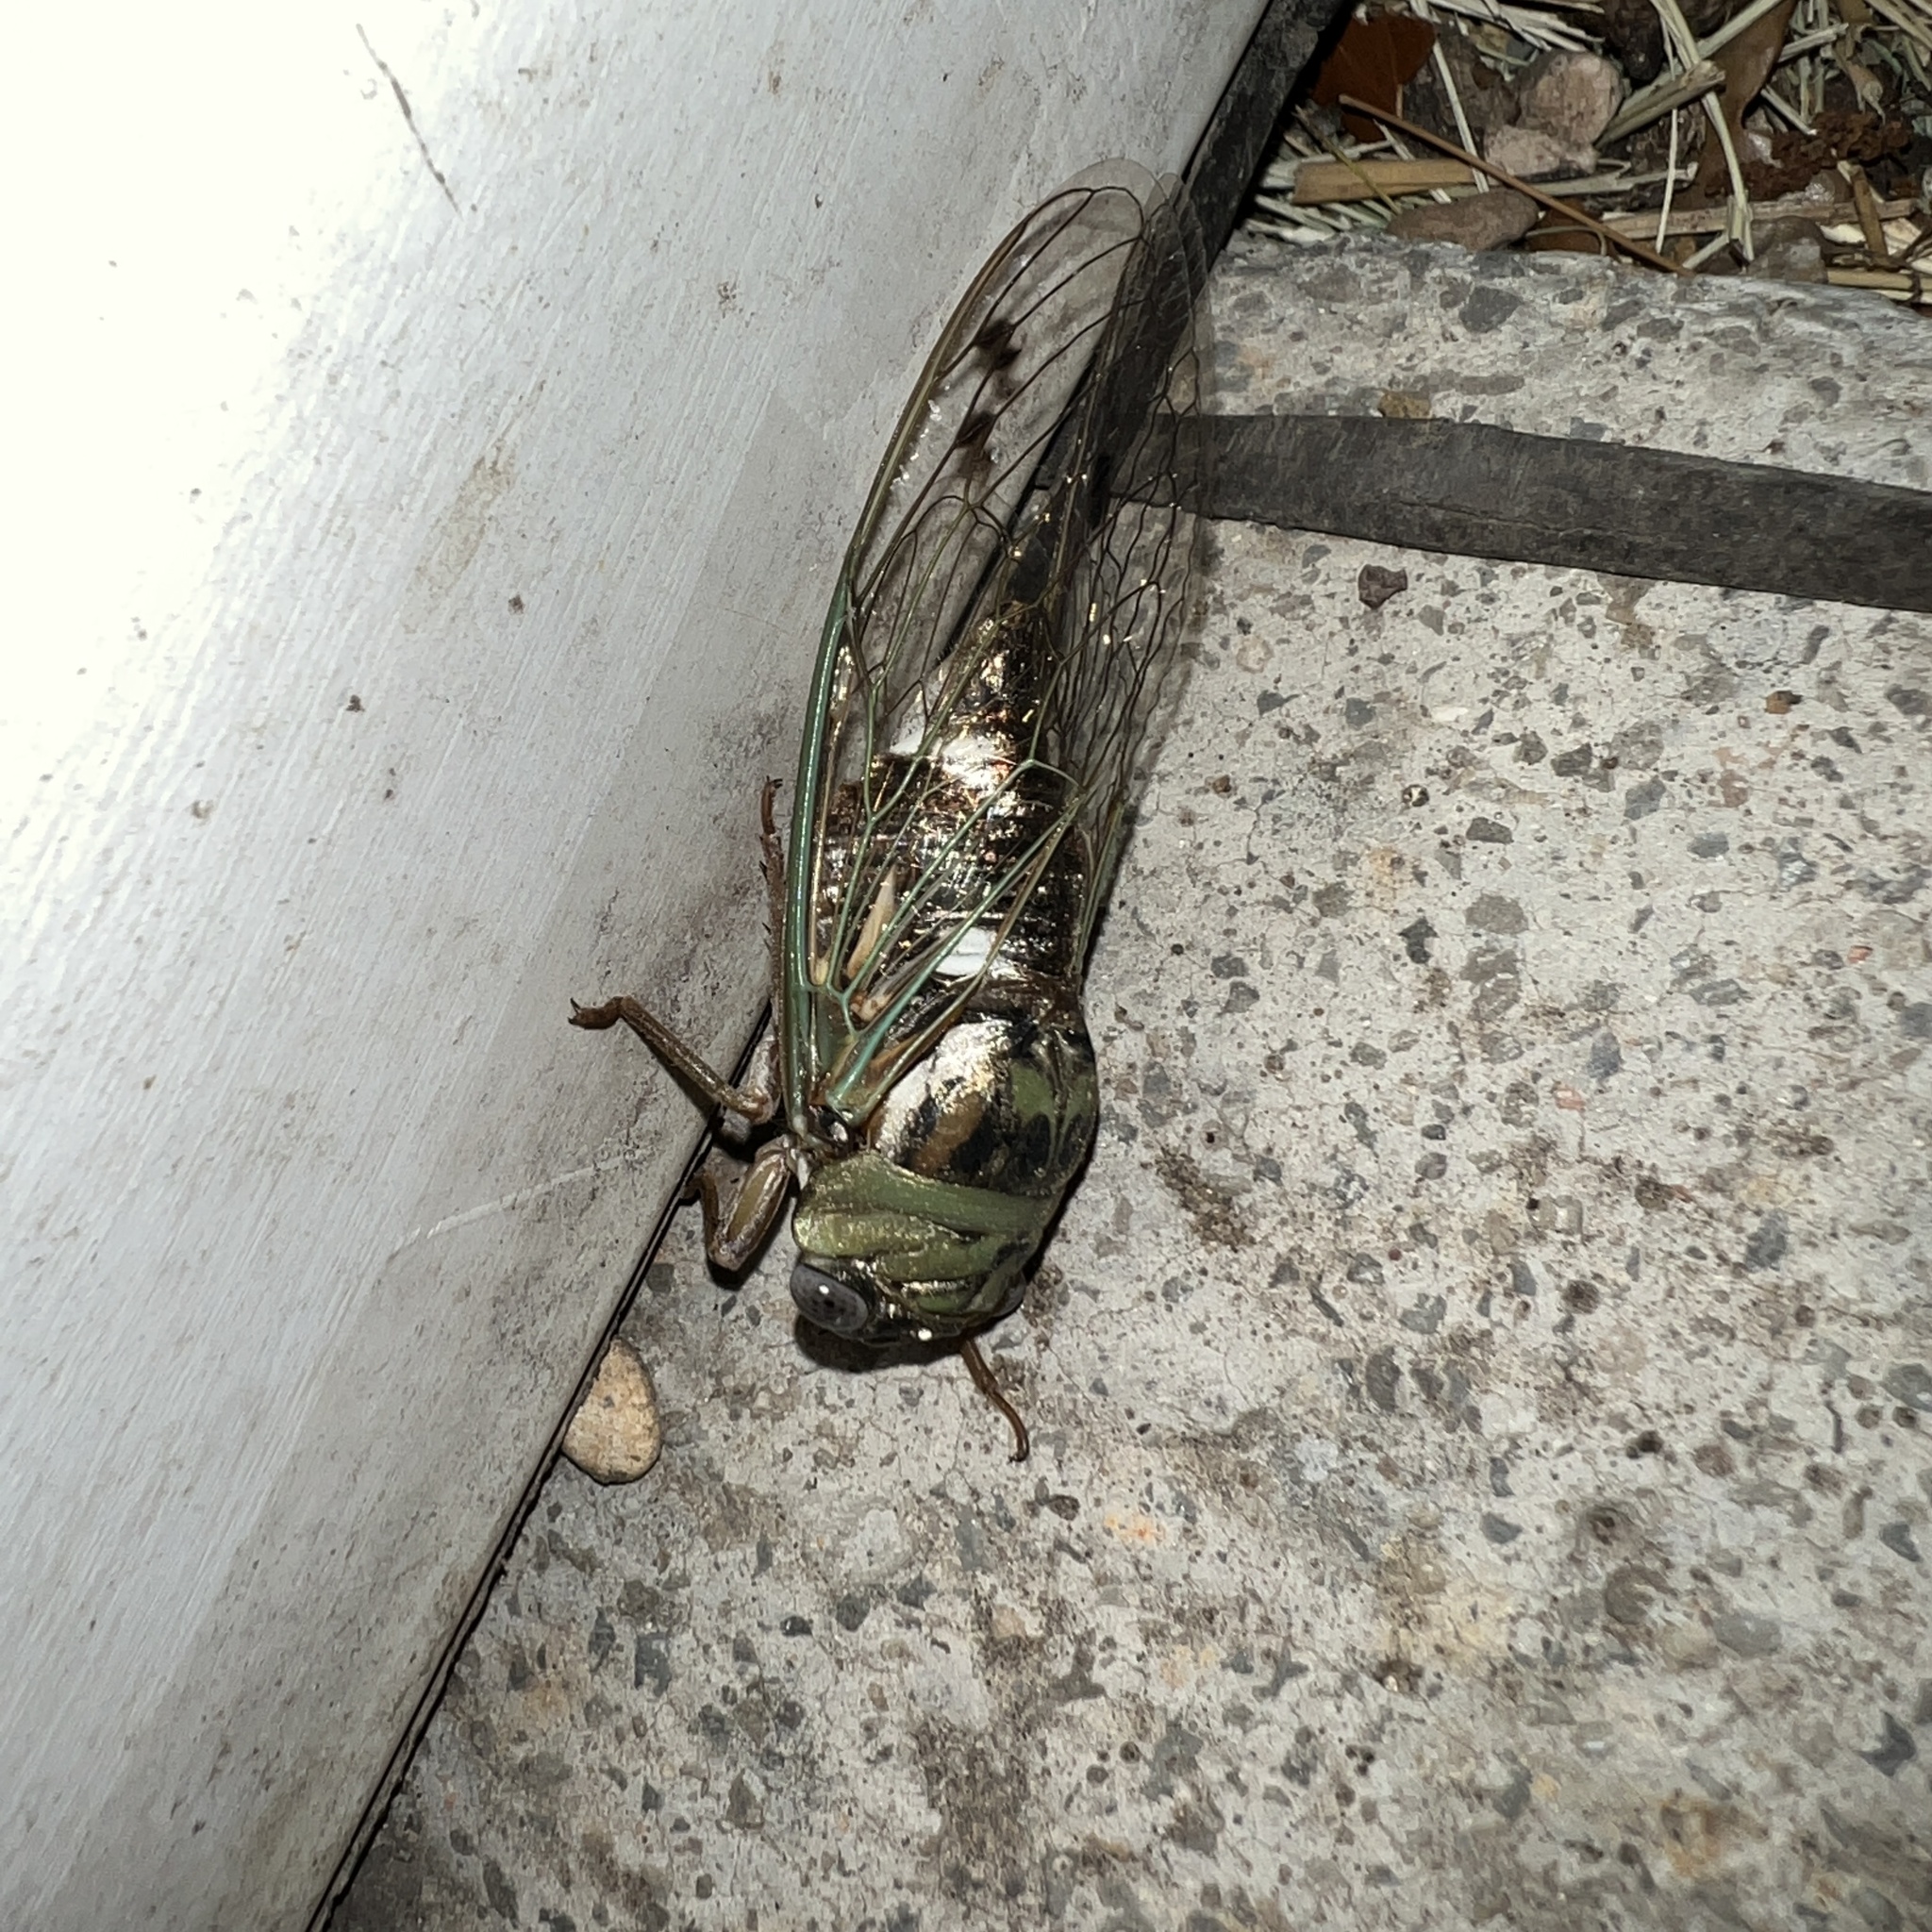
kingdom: Animalia
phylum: Arthropoda
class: Insecta
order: Hemiptera
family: Cicadidae
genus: Megatibicen
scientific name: Megatibicen resh
